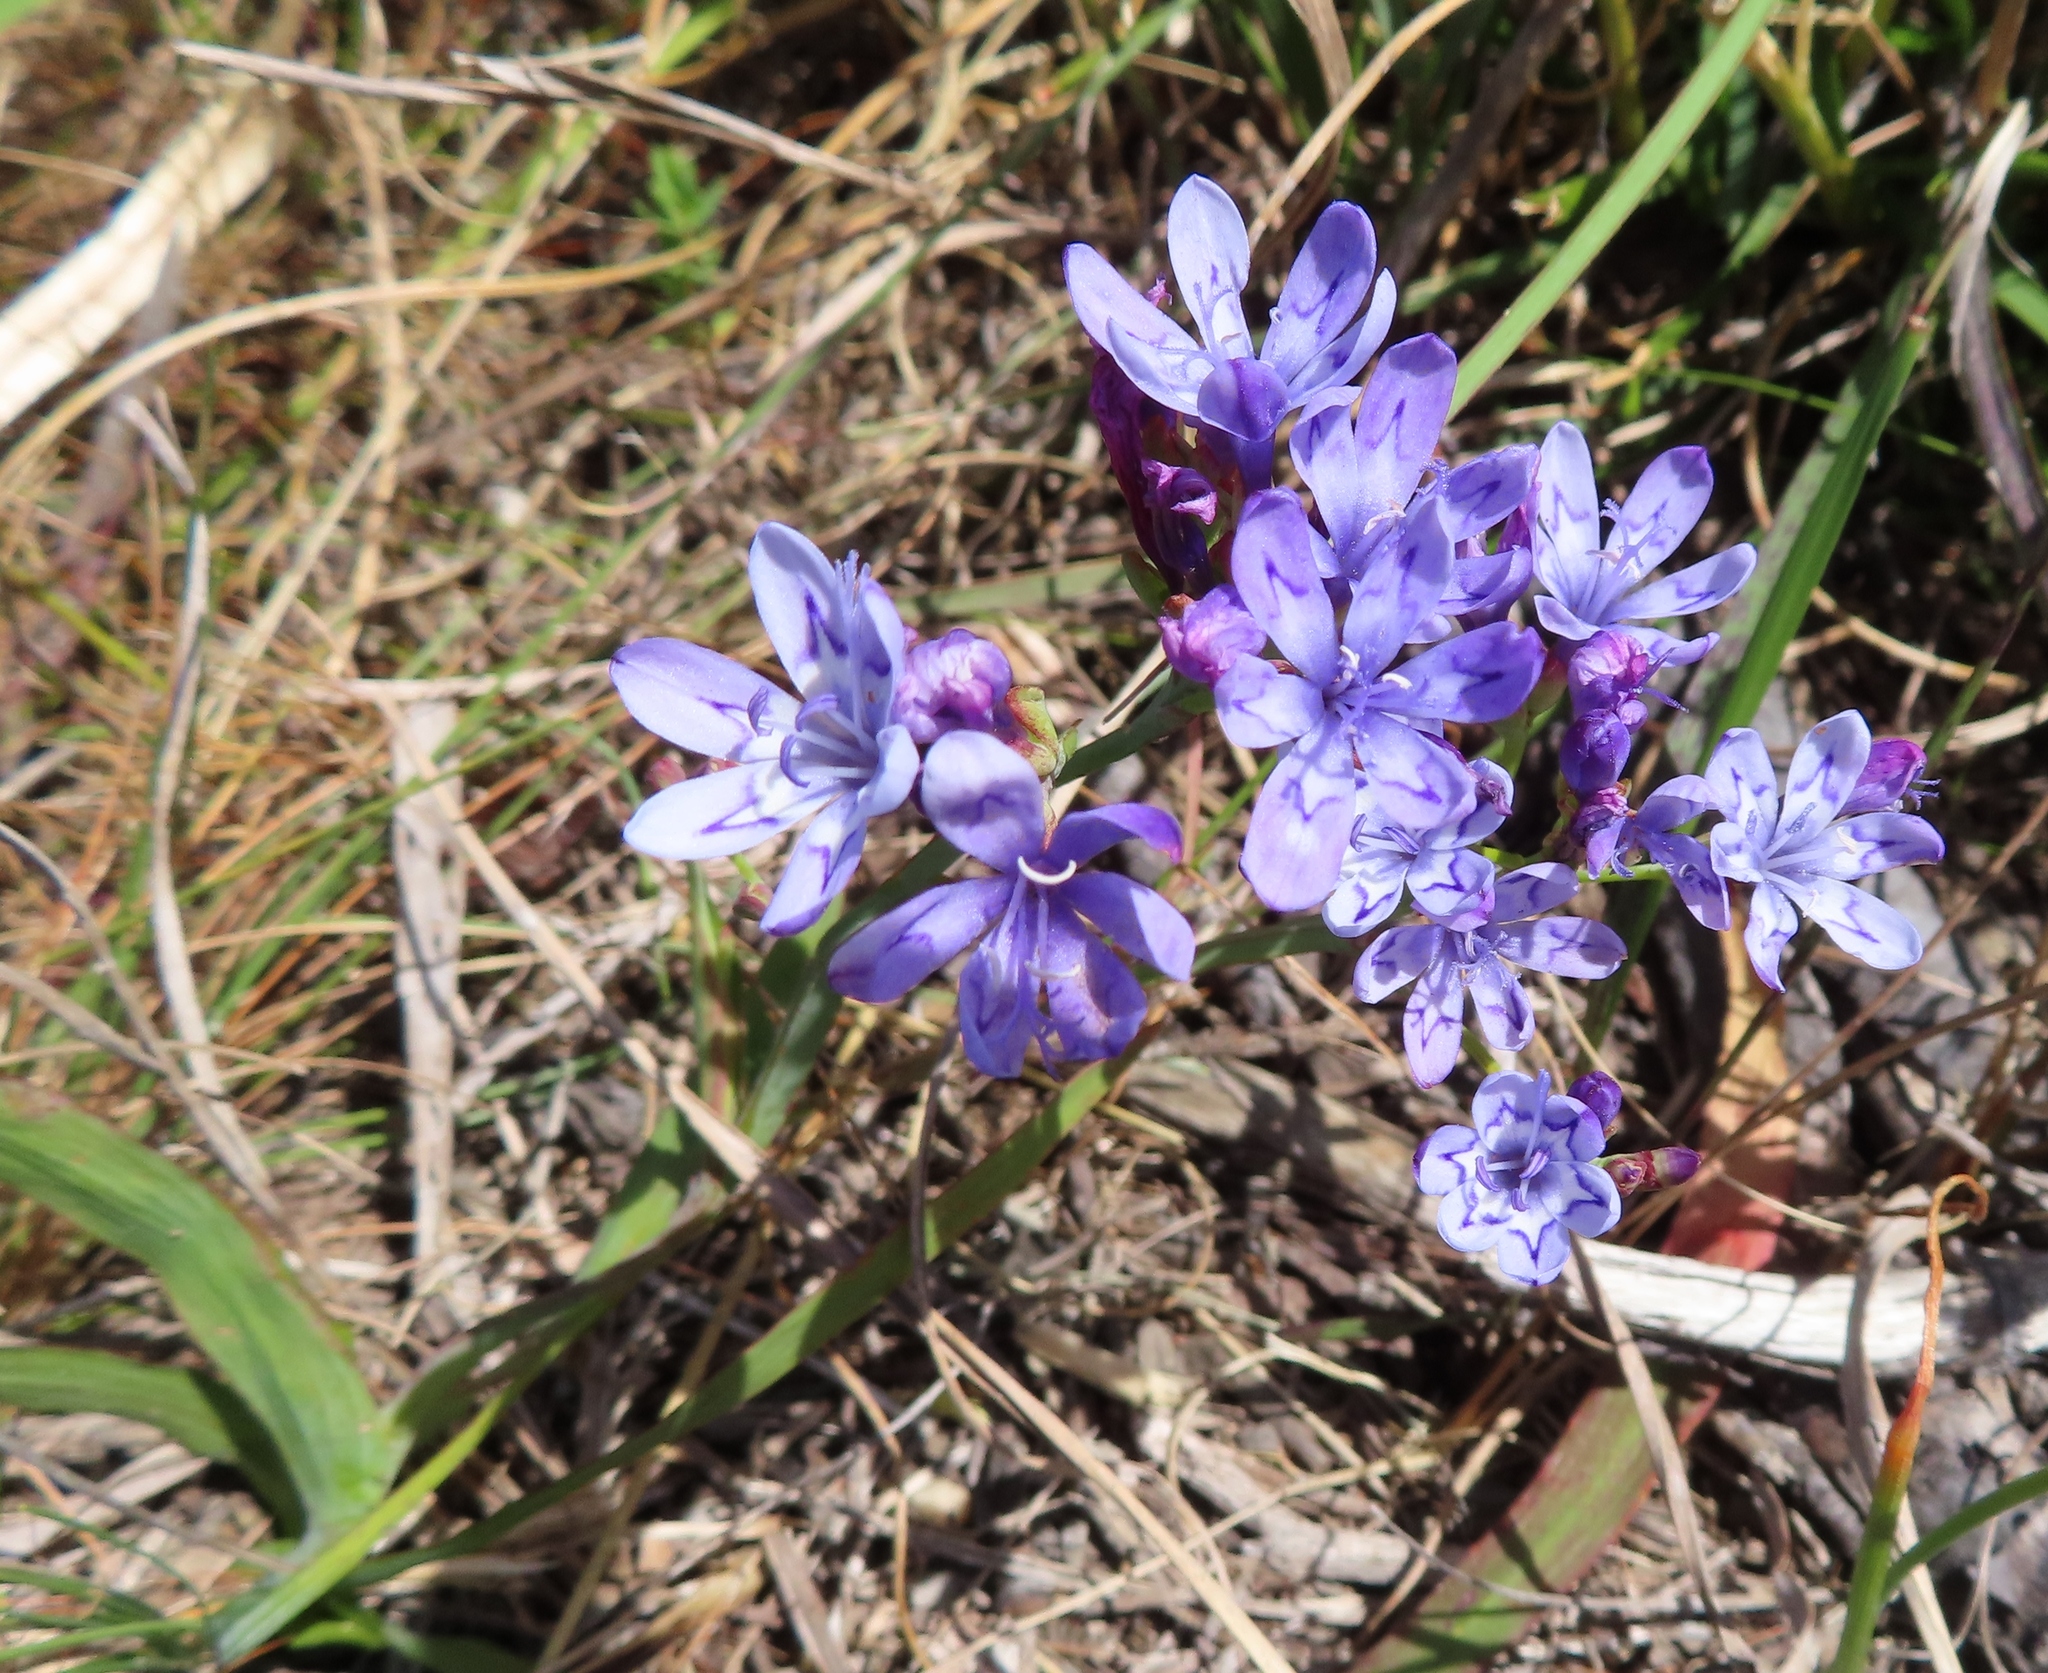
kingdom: Plantae
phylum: Tracheophyta
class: Liliopsida
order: Asparagales
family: Iridaceae
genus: Codonorhiza
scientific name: Codonorhiza corymbosa
